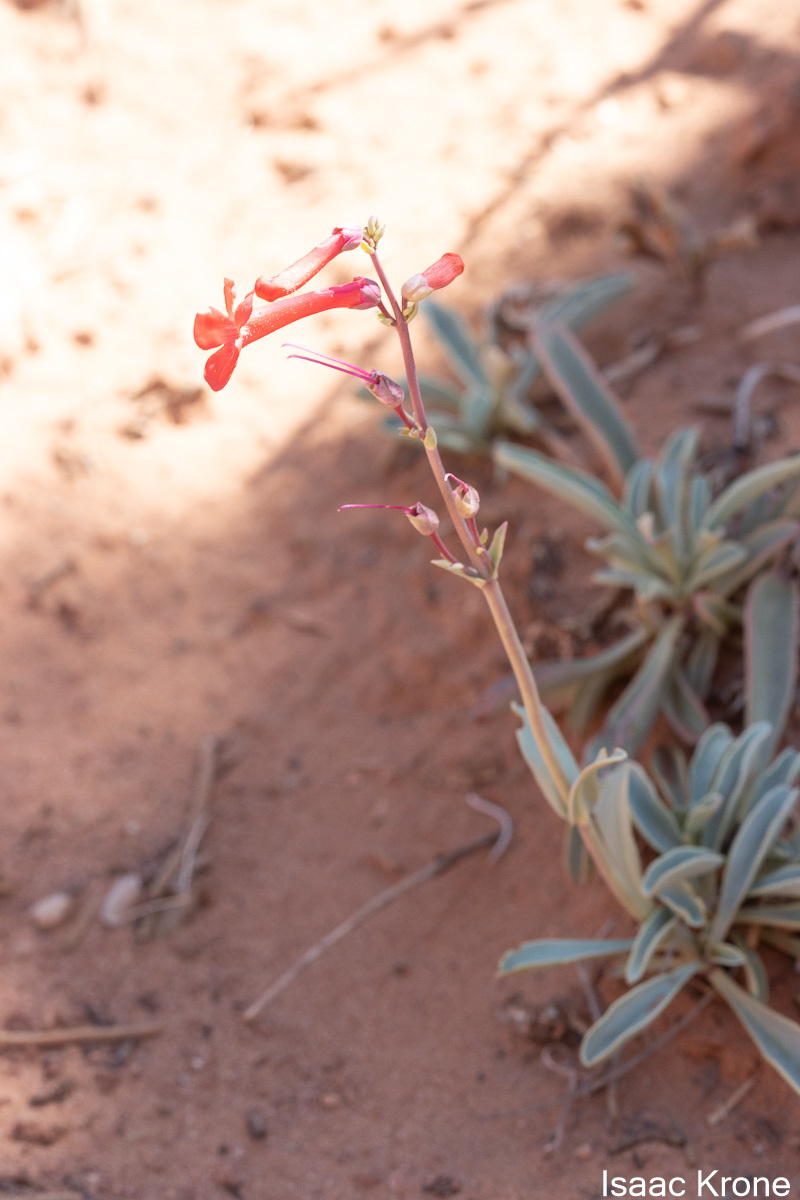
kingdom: Plantae
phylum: Tracheophyta
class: Magnoliopsida
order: Lamiales
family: Plantaginaceae
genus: Penstemon
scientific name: Penstemon utahensis
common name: Utah penstemon
